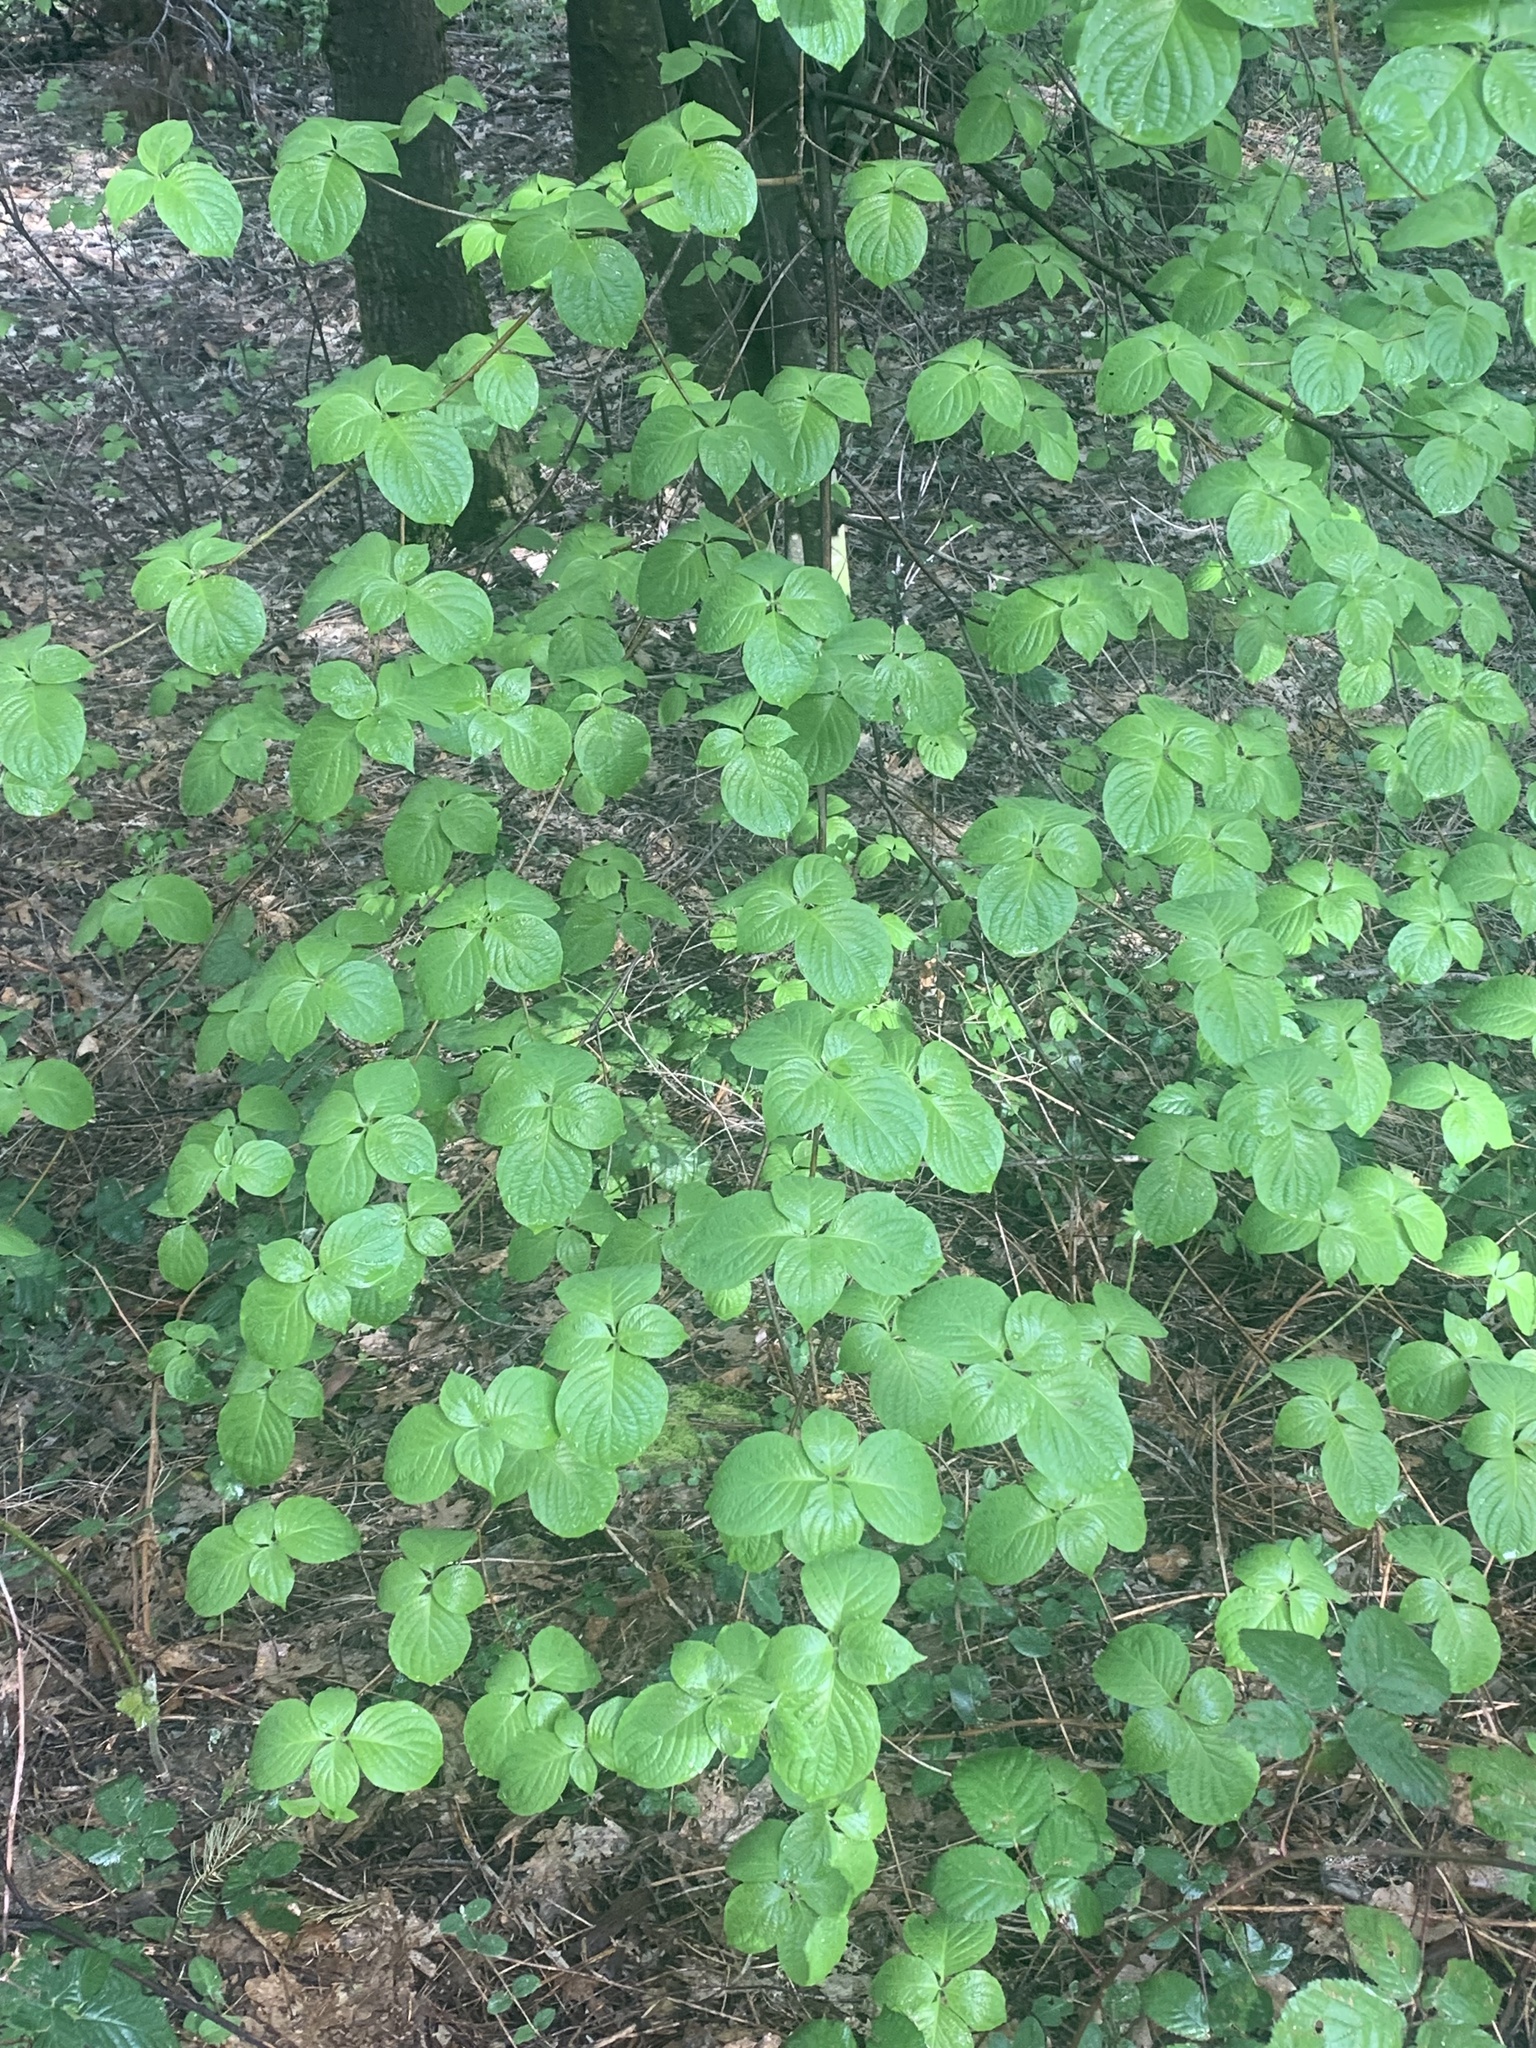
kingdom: Plantae
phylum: Tracheophyta
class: Magnoliopsida
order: Cornales
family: Cornaceae
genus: Cornus
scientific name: Cornus nuttallii
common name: Pacific dogwood
